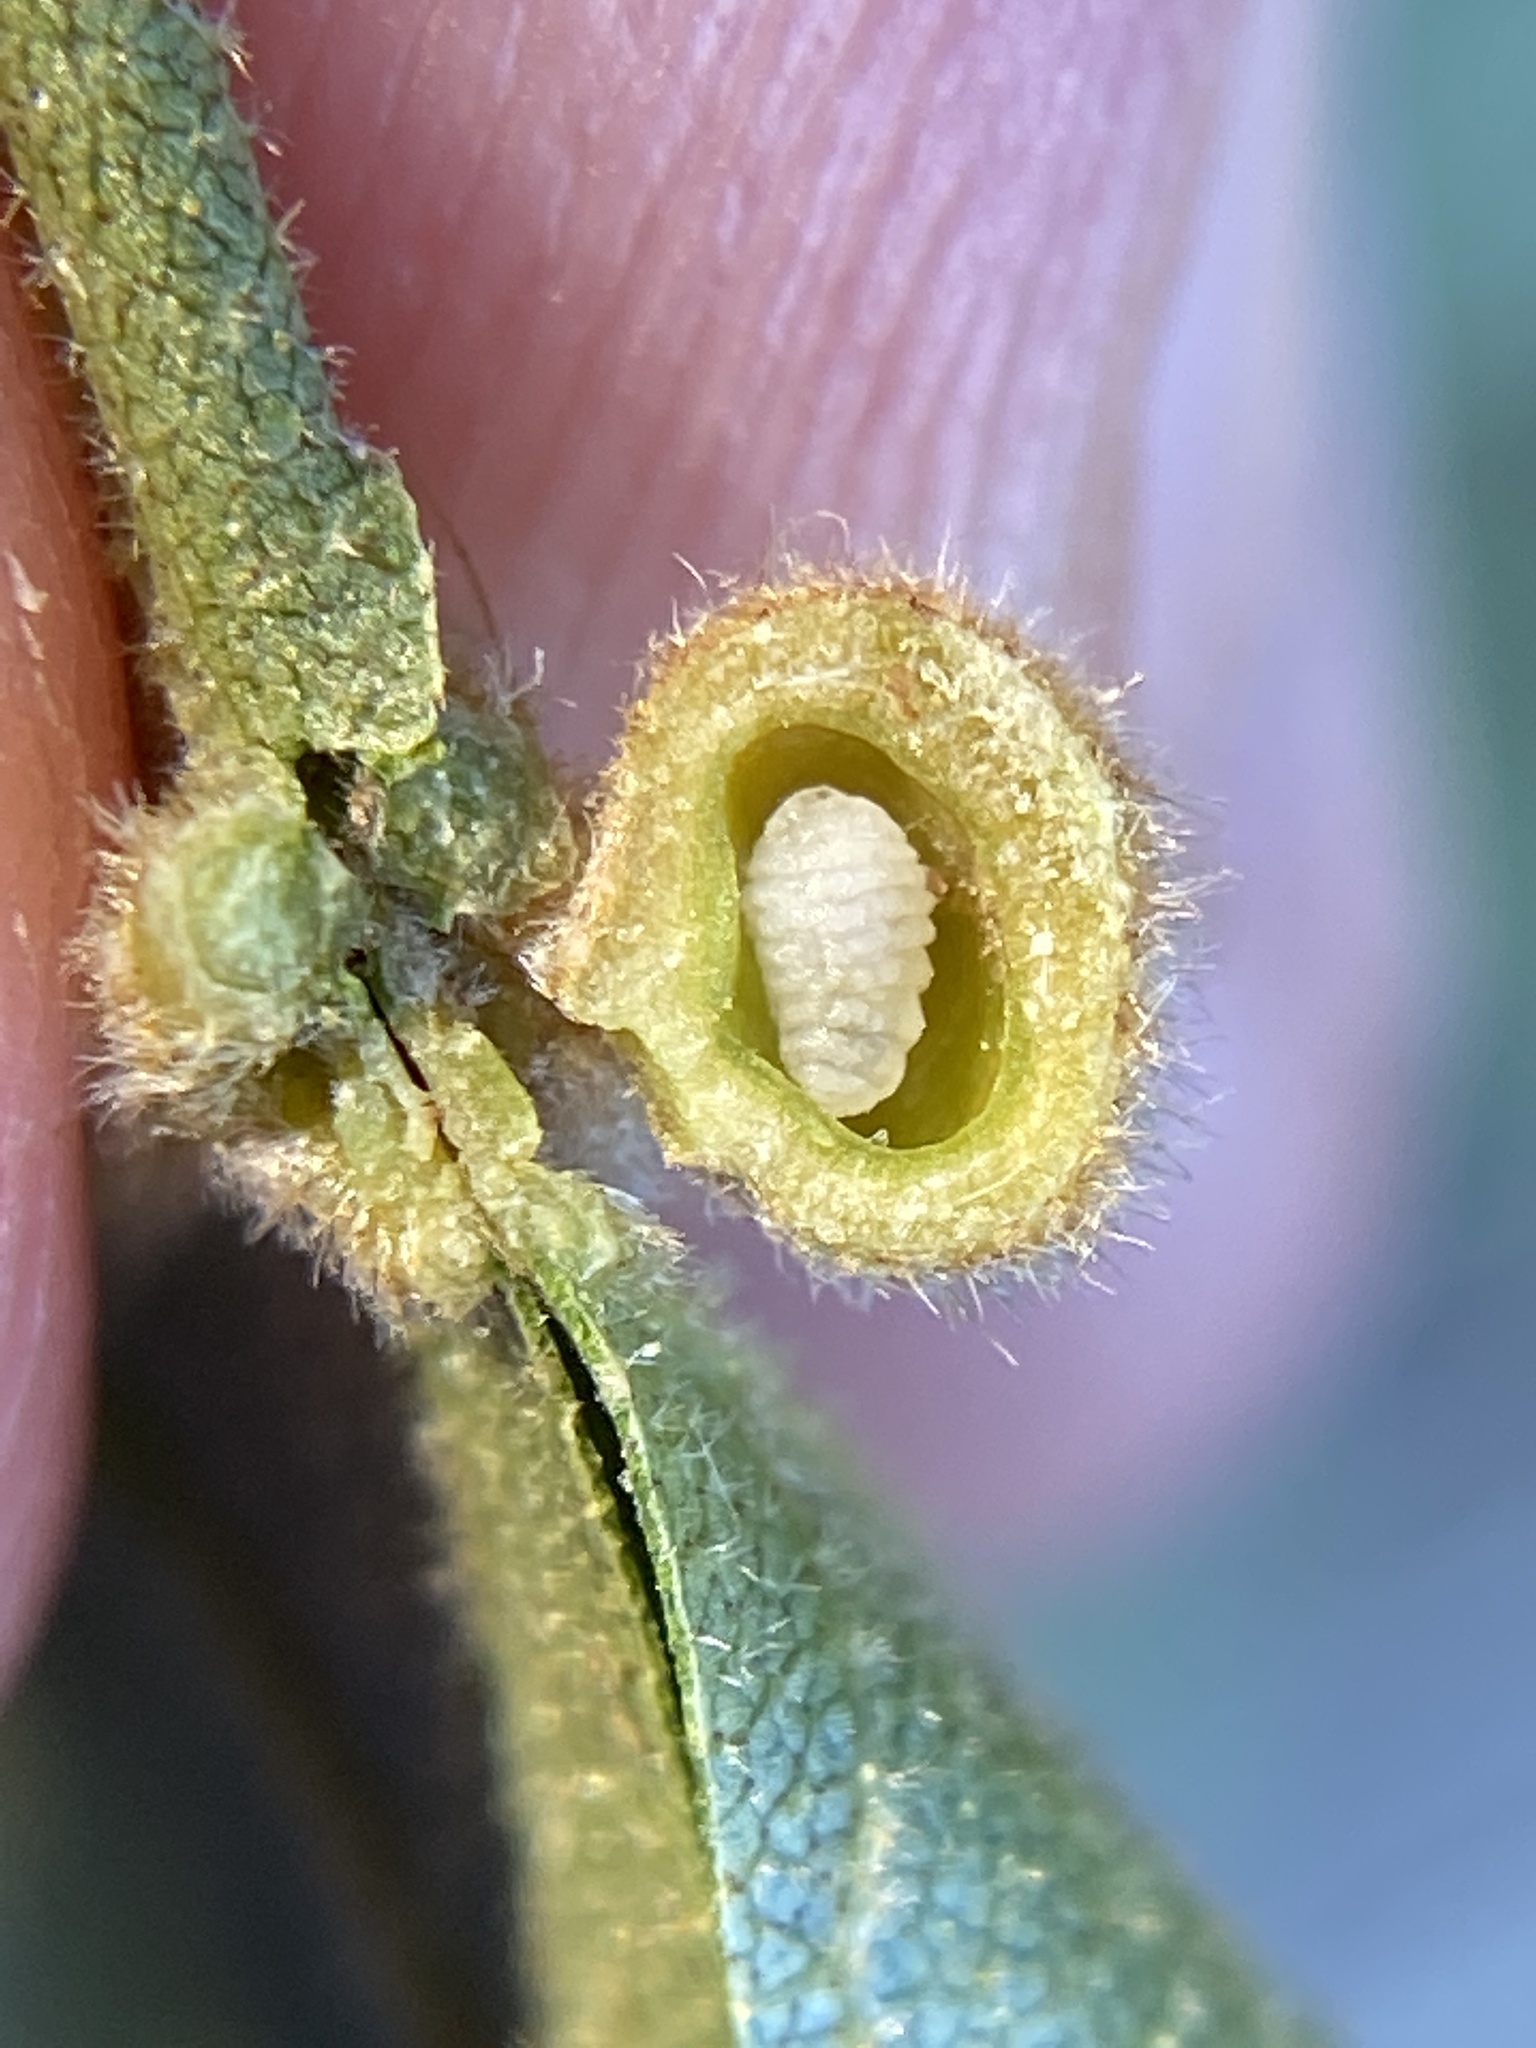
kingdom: Animalia
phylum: Arthropoda
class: Insecta
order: Diptera
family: Cecidomyiidae
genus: Caryomyia
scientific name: Caryomyia spherica
